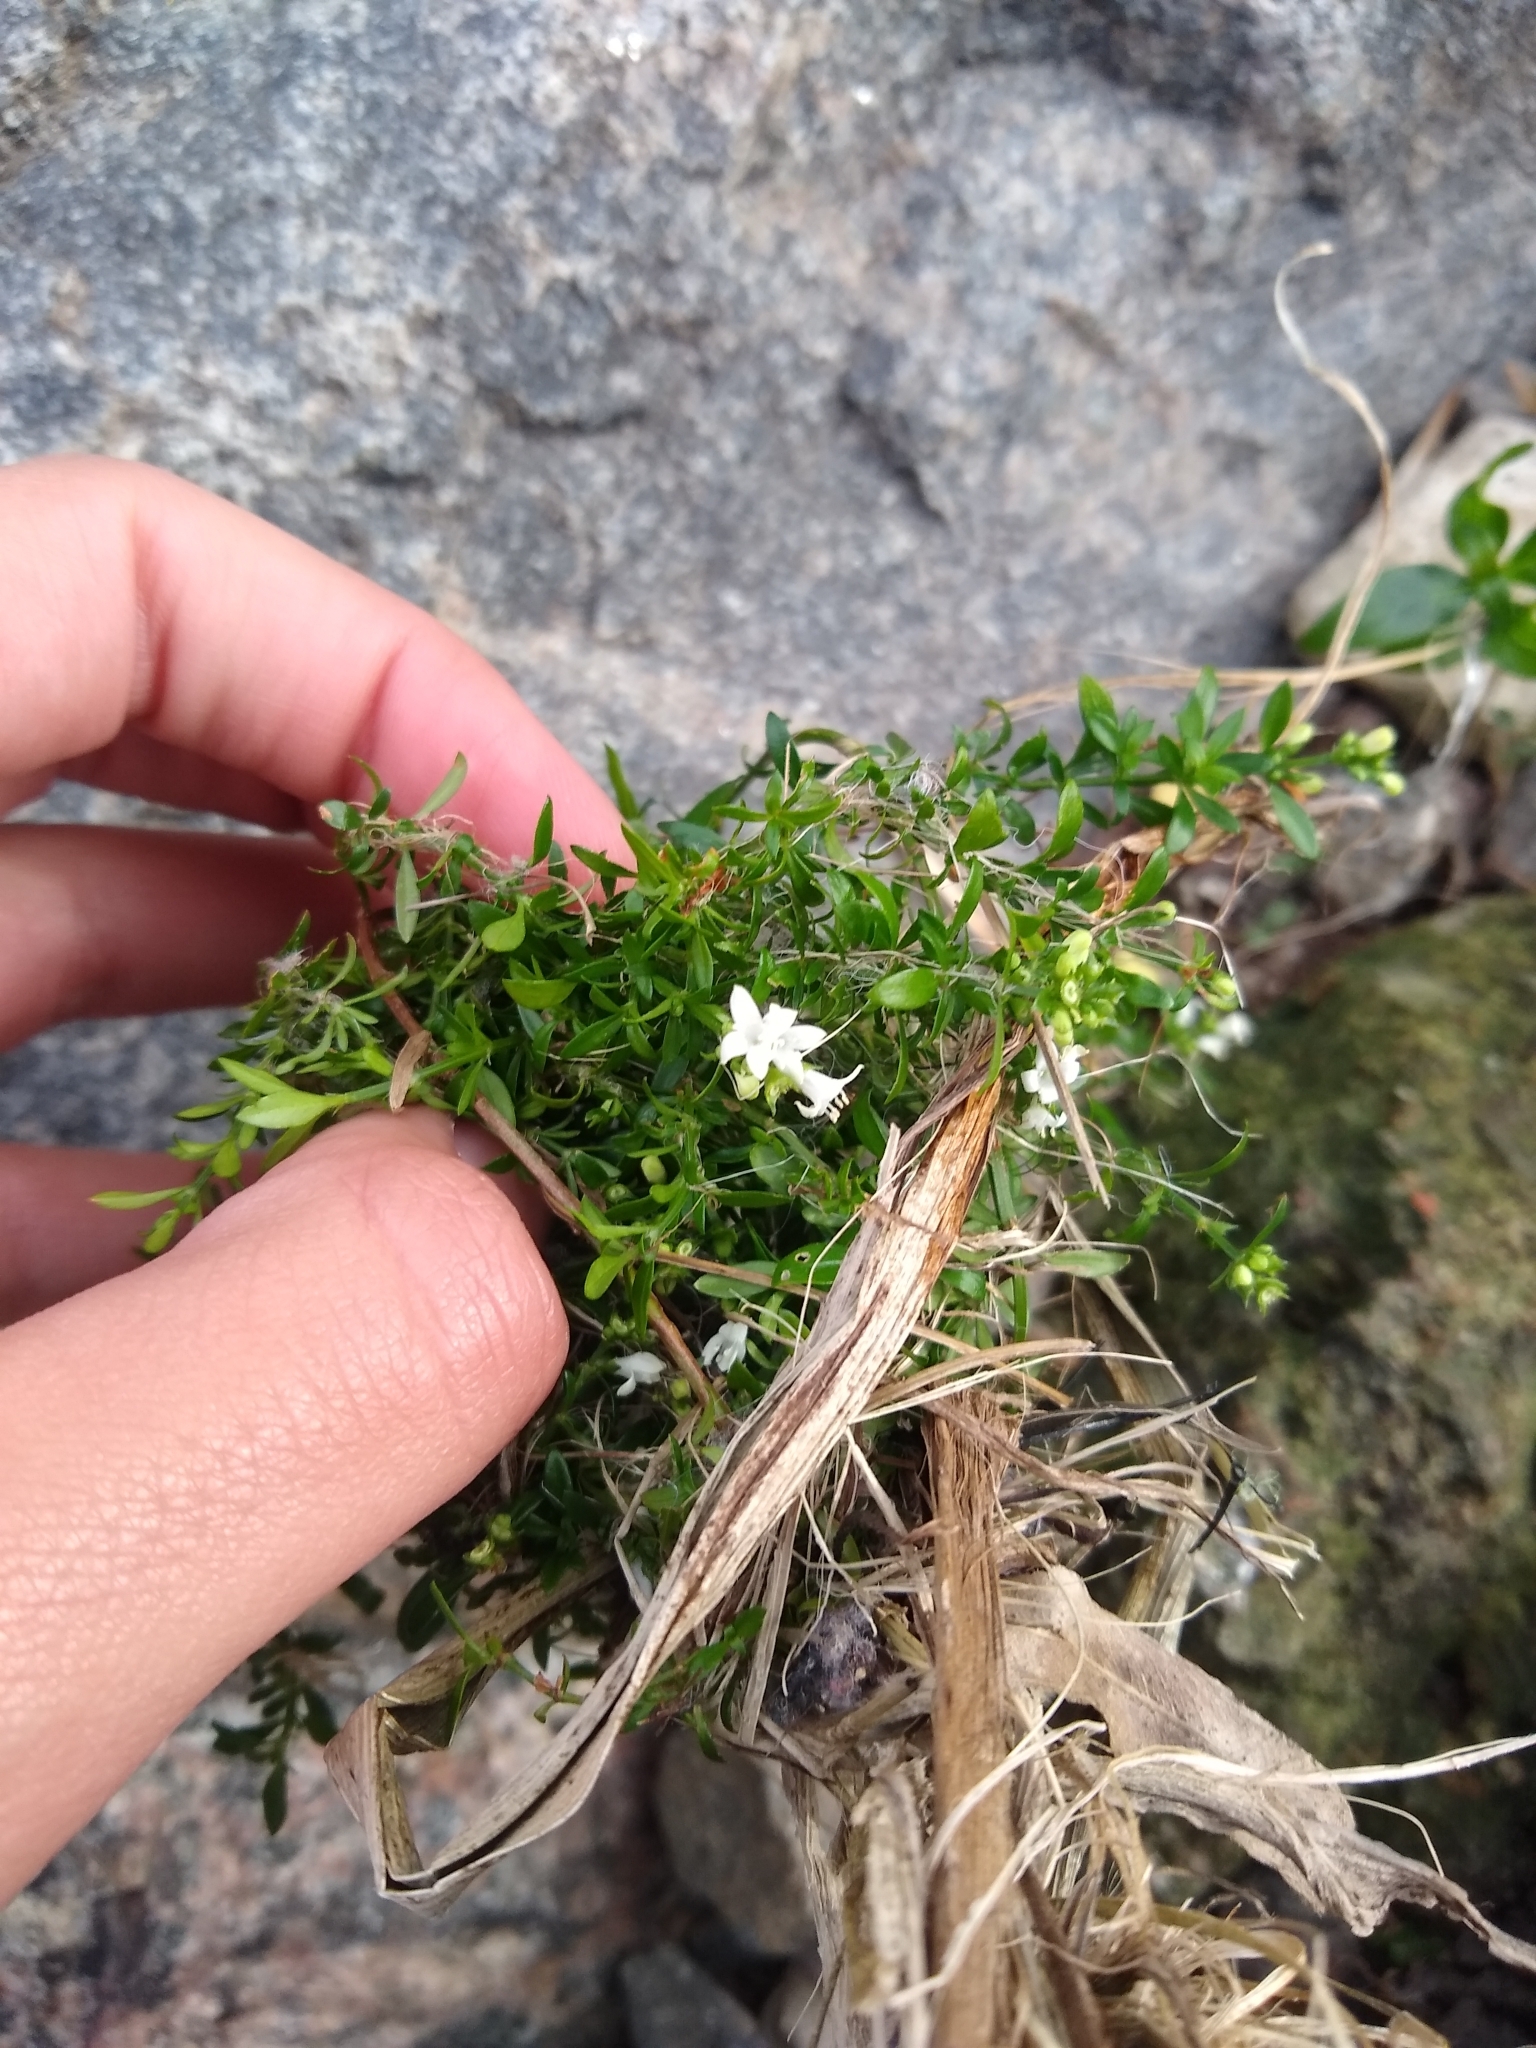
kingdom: Plantae
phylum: Tracheophyta
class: Magnoliopsida
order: Gentianales
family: Rubiaceae
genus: Galianthe
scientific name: Galianthe brasiliensis
